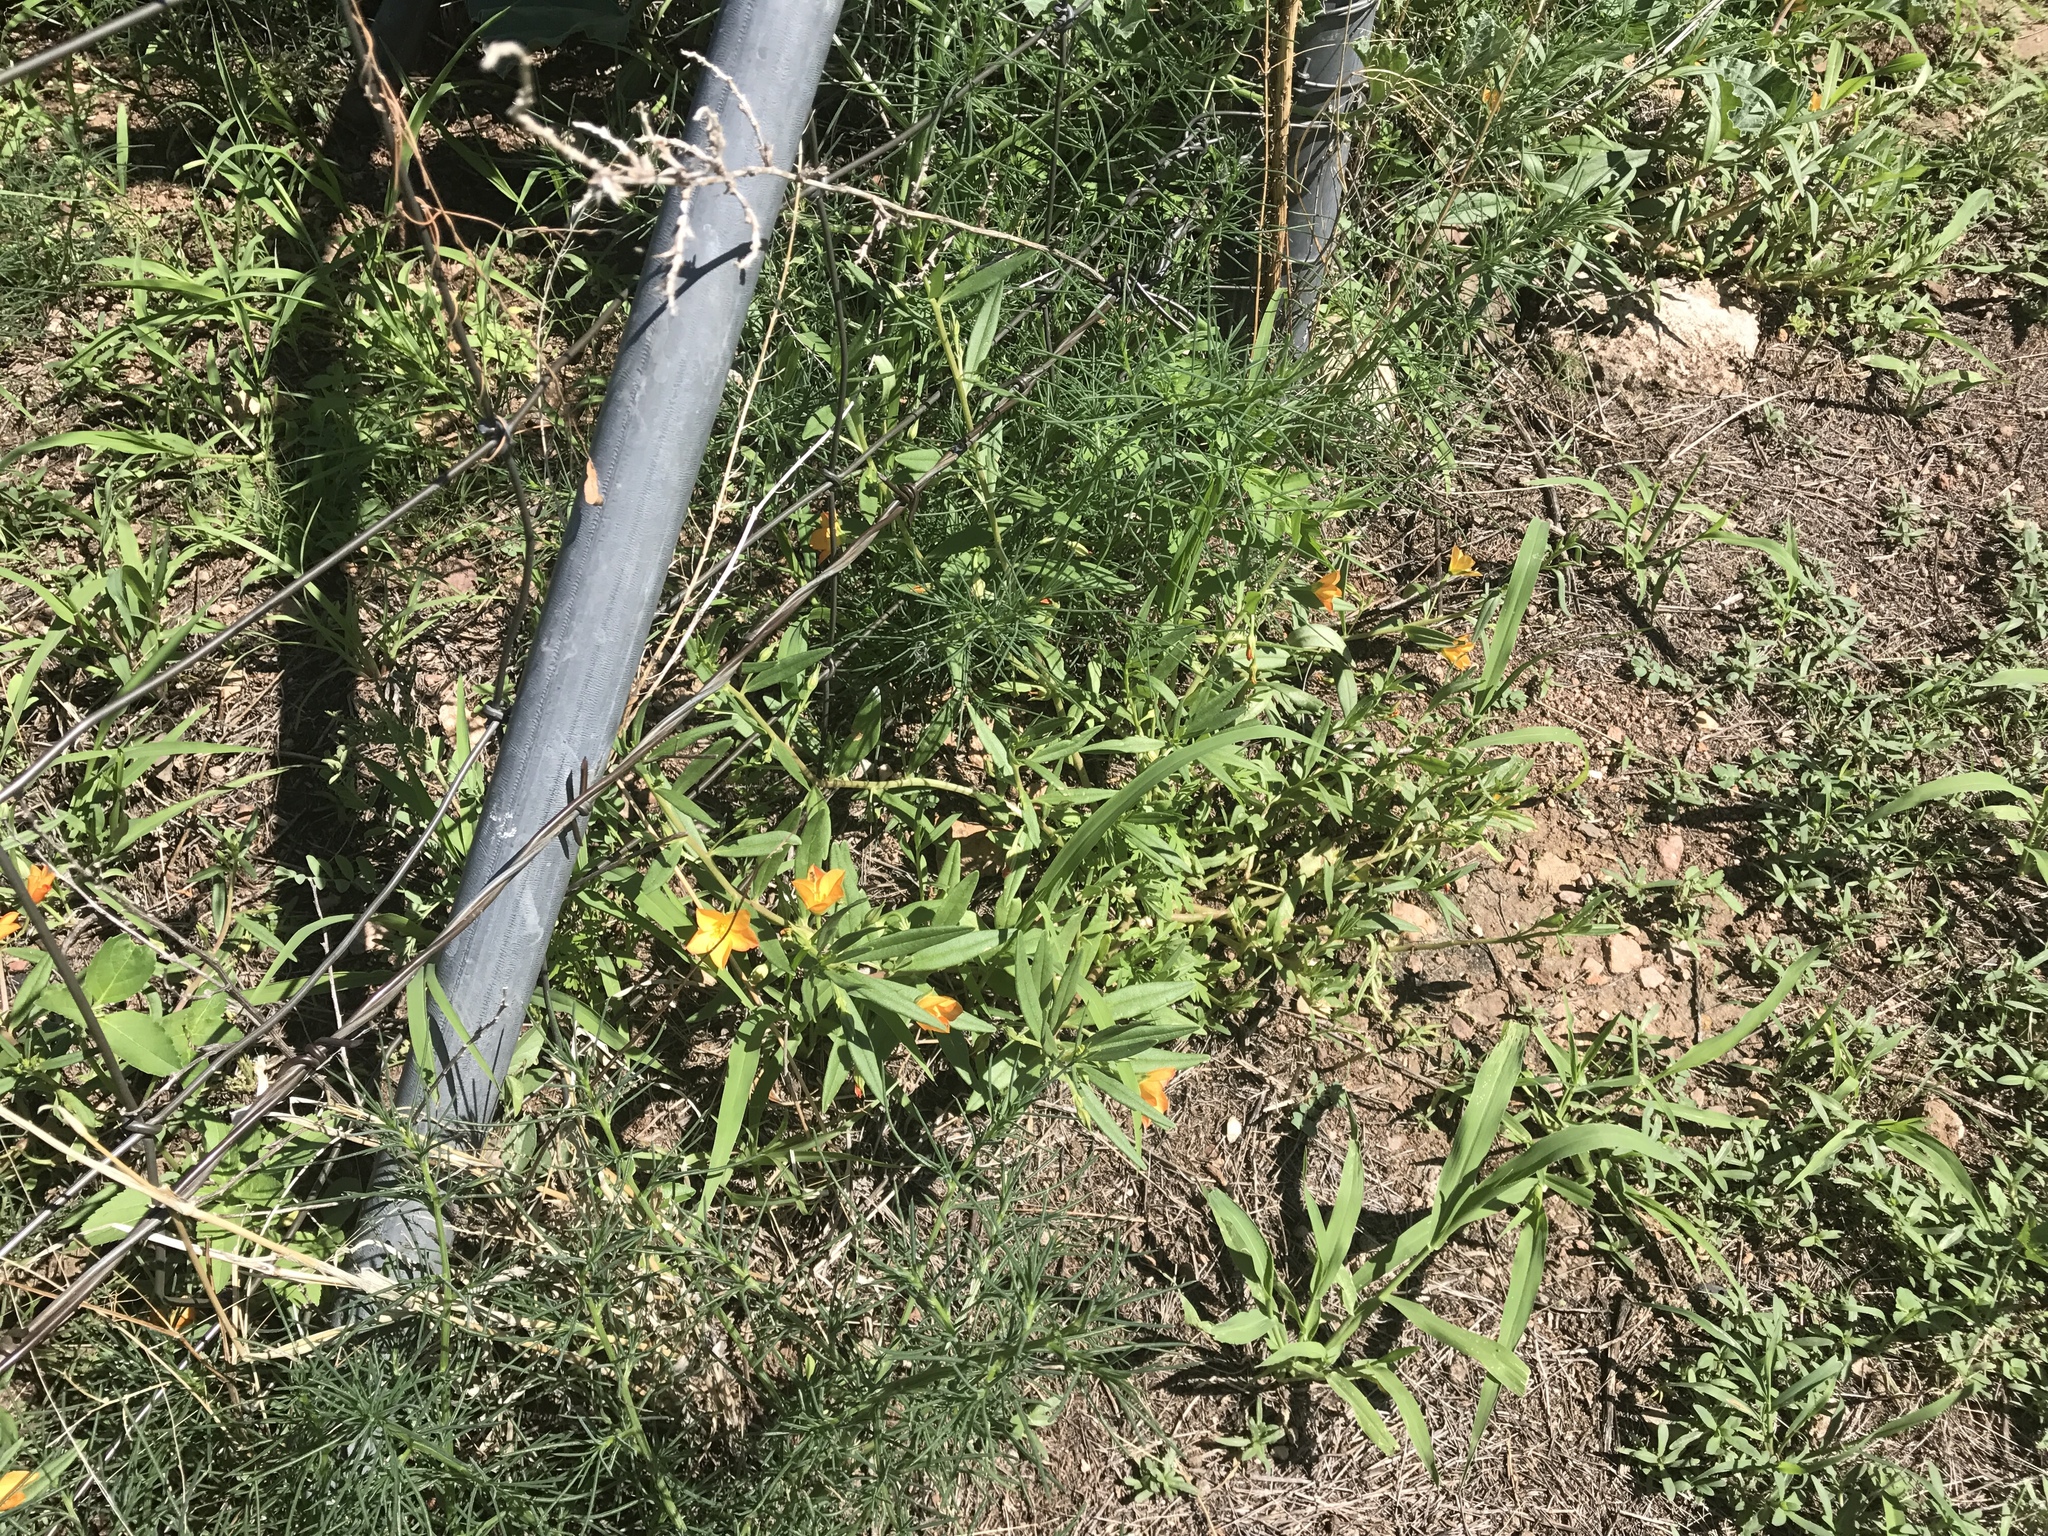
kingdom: Plantae
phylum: Tracheophyta
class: Magnoliopsida
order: Caryophyllales
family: Montiaceae
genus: Phemeranthus
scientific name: Phemeranthus aurantiacus
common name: Orange fameflower
